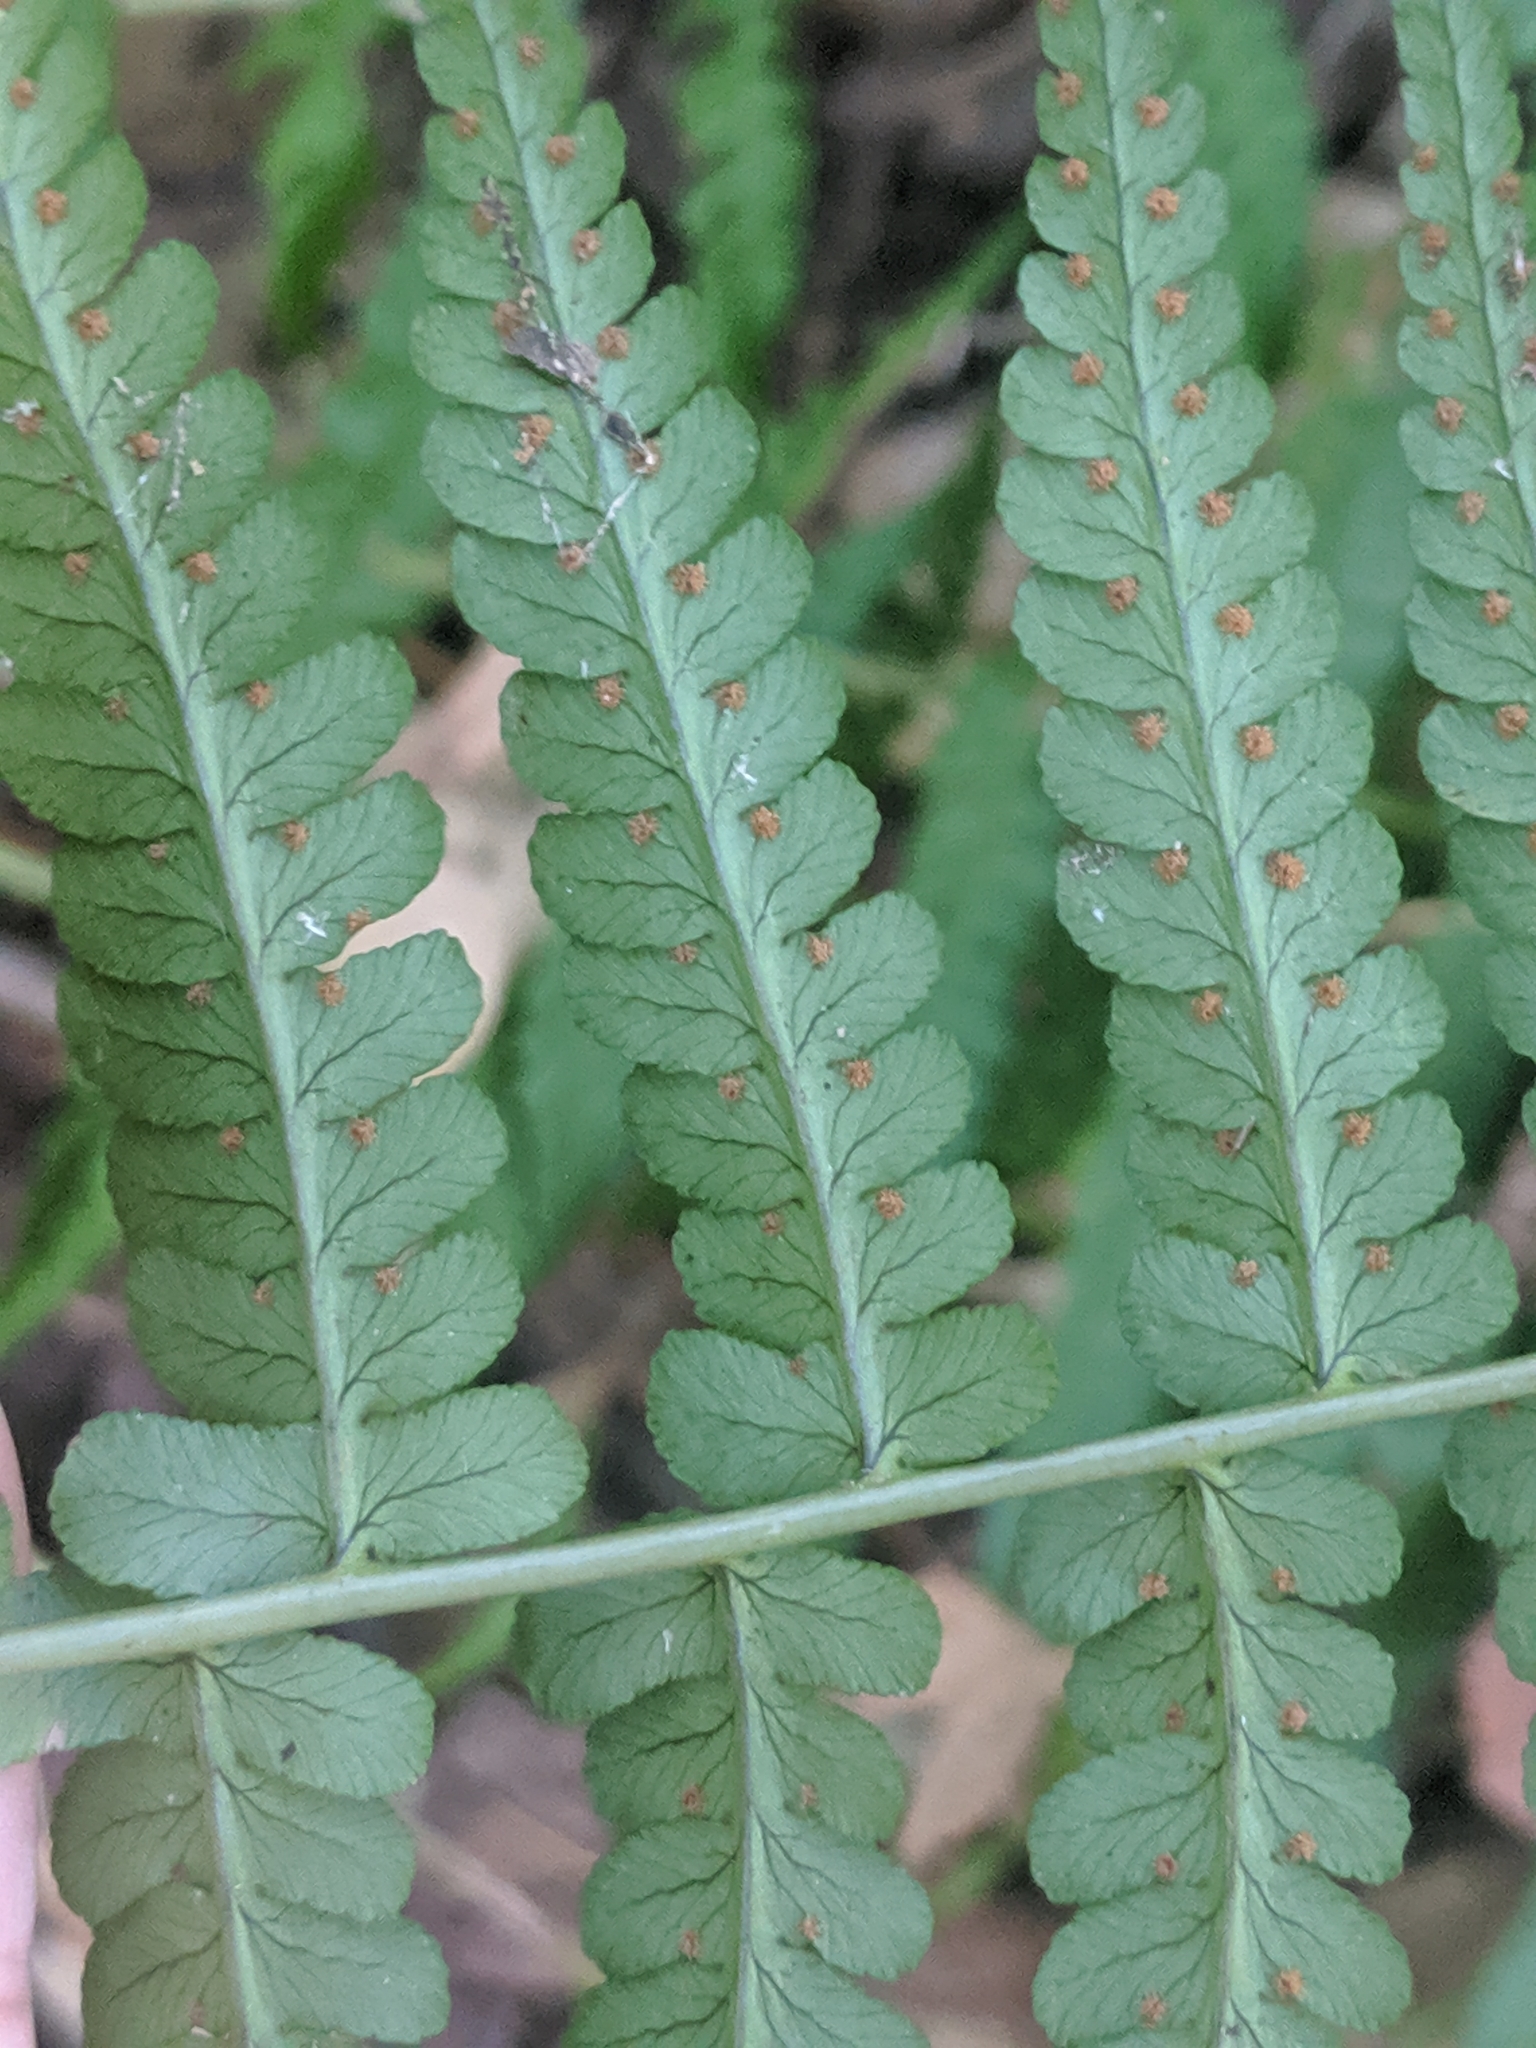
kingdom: Plantae
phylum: Tracheophyta
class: Polypodiopsida
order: Polypodiales
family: Dryopteridaceae
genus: Dryopteris
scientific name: Dryopteris marginalis
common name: Marginal wood fern
